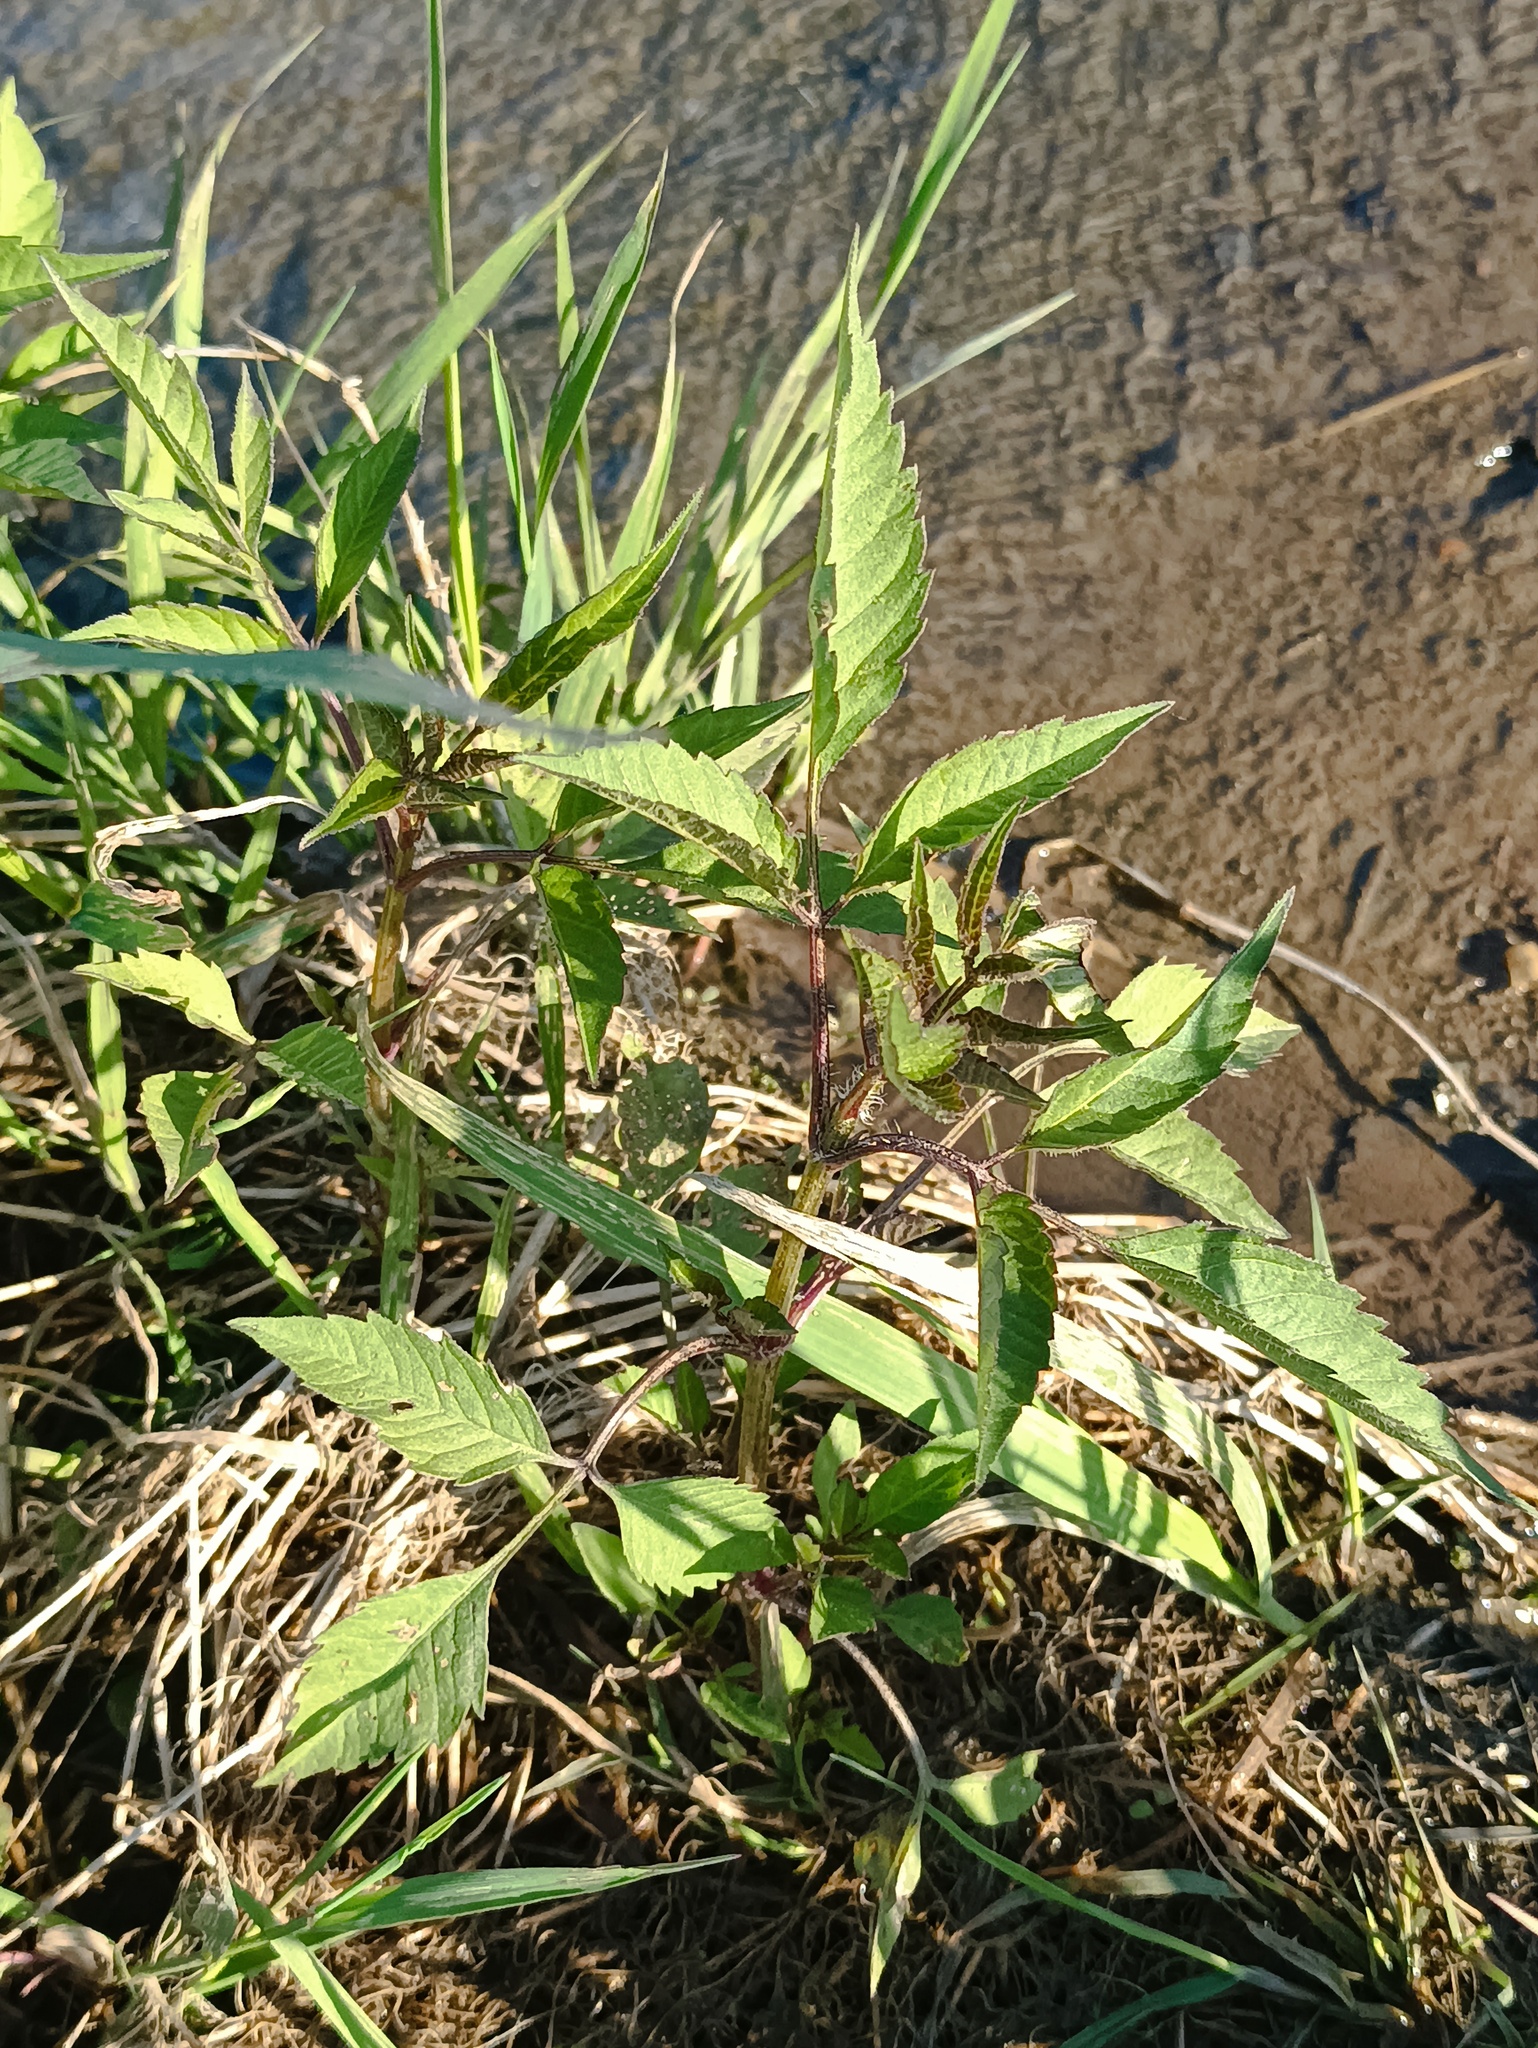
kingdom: Plantae
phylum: Tracheophyta
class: Magnoliopsida
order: Asterales
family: Asteraceae
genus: Bidens
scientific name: Bidens frondosa
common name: Beggarticks
